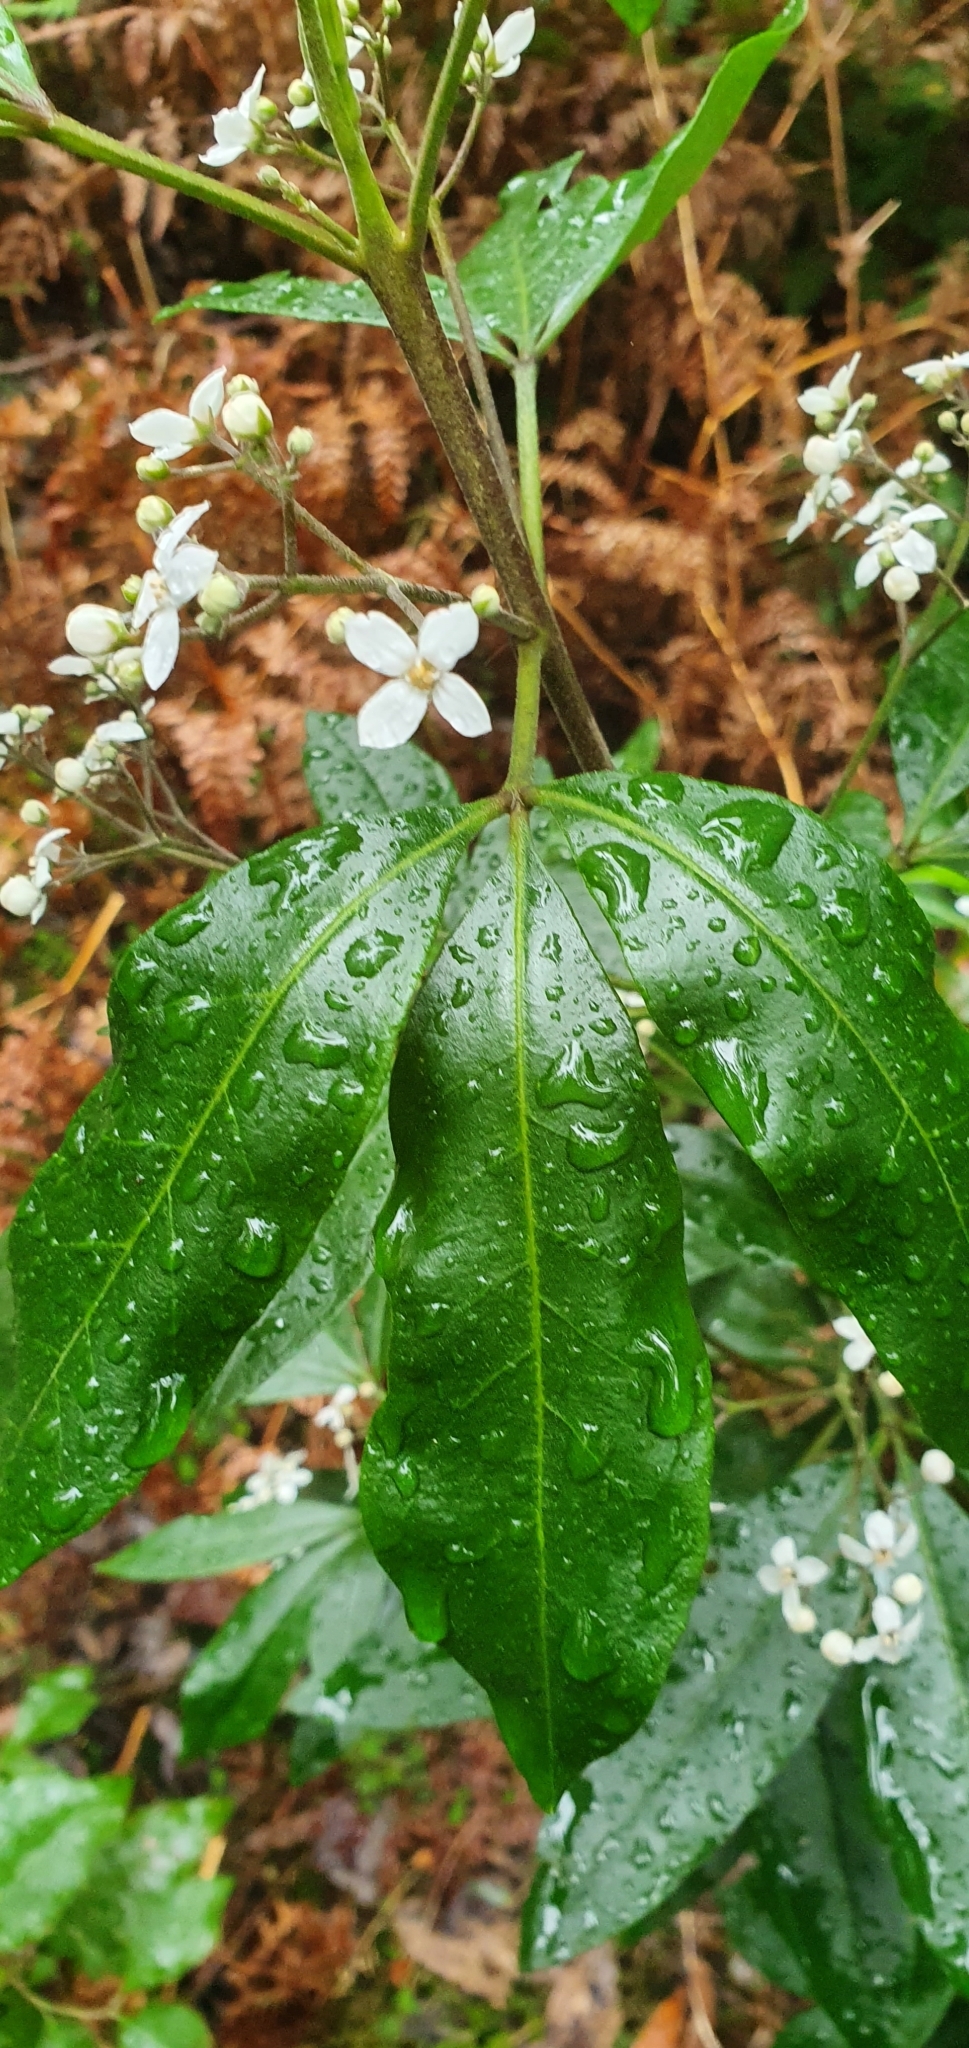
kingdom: Plantae
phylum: Tracheophyta
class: Magnoliopsida
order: Sapindales
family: Rutaceae
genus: Zieria
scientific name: Zieria arborescens
